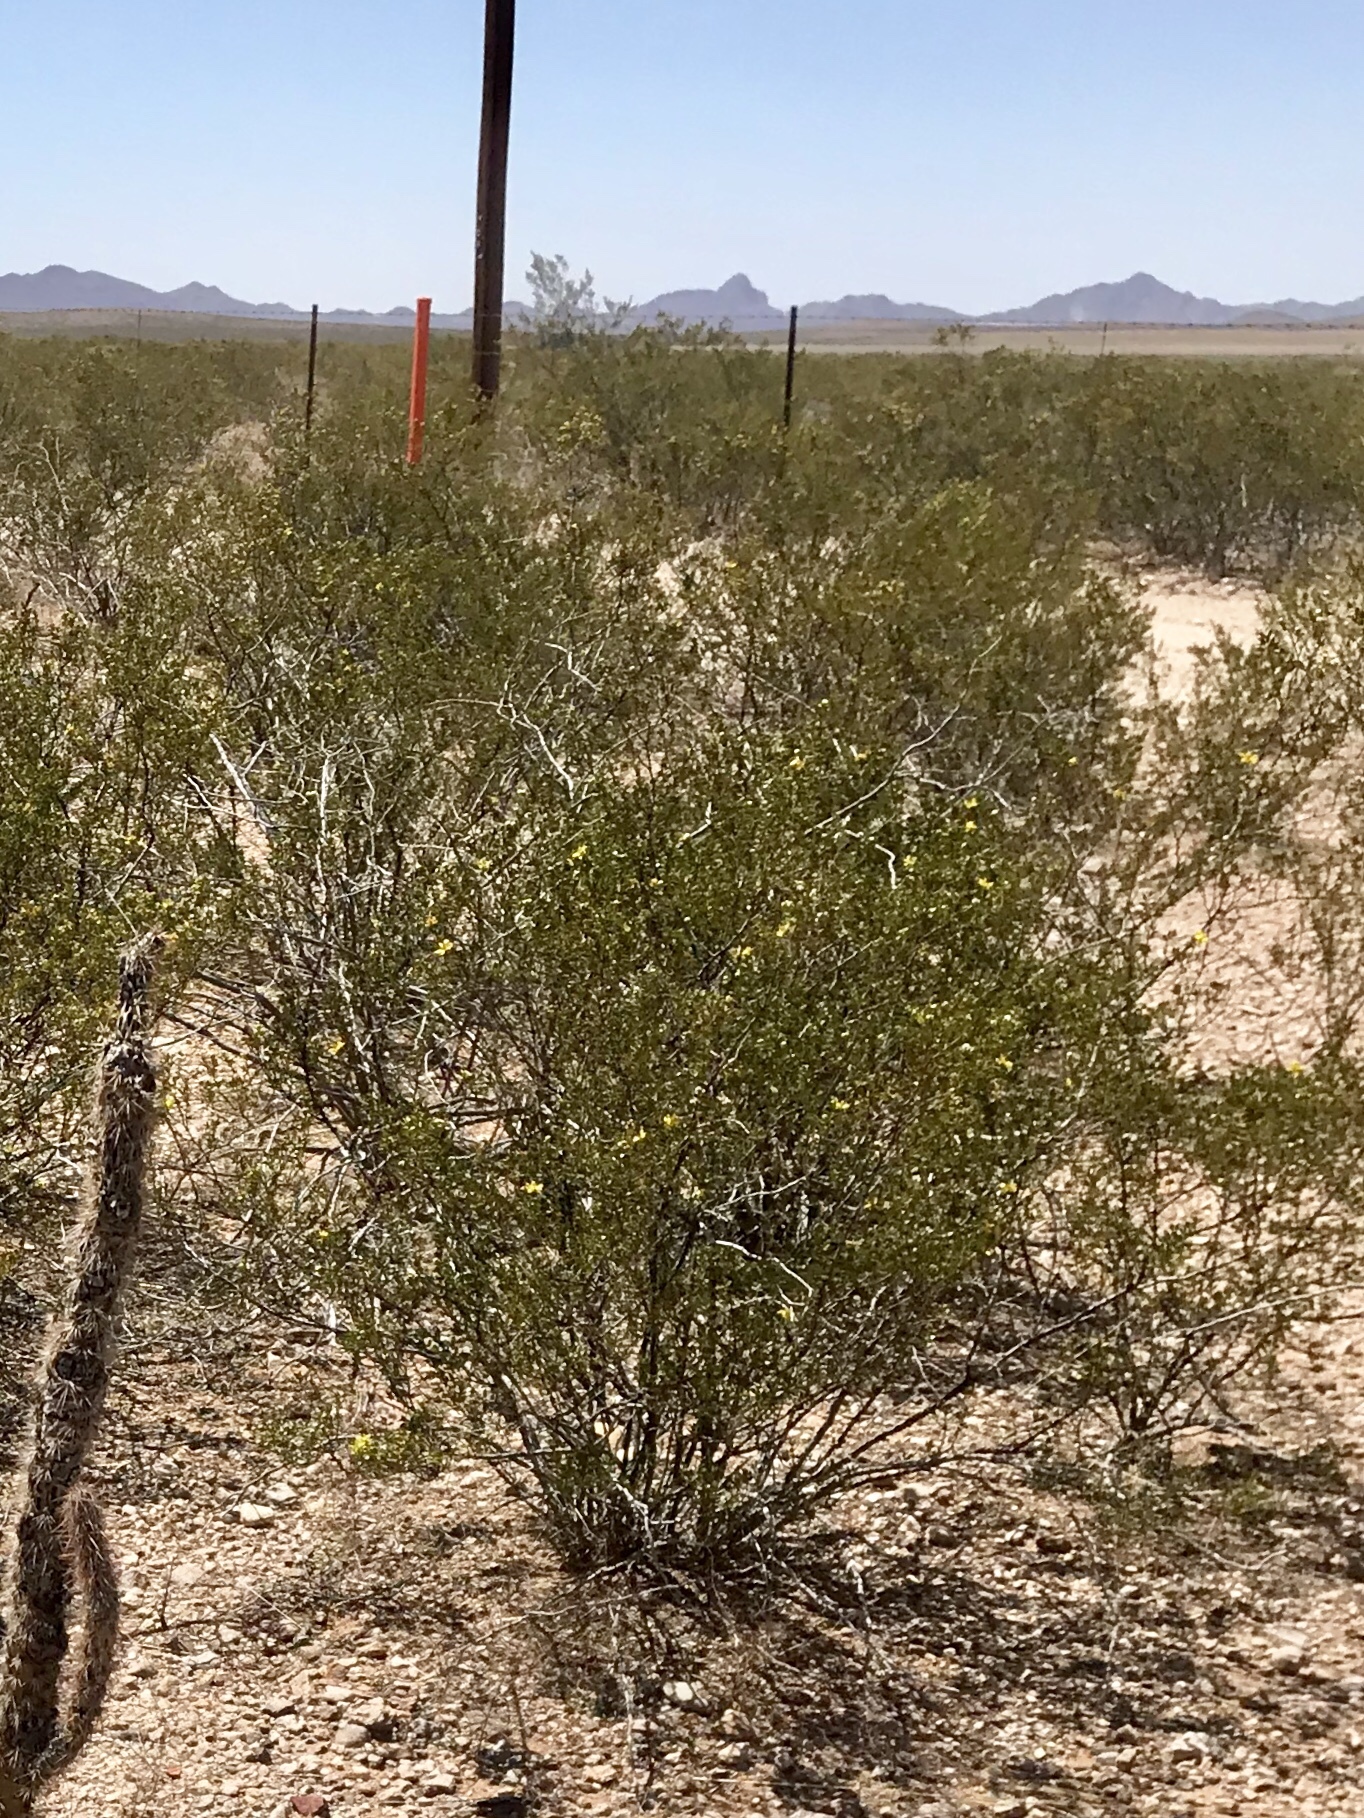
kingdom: Plantae
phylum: Tracheophyta
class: Magnoliopsida
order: Zygophyllales
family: Zygophyllaceae
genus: Larrea
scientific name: Larrea tridentata
